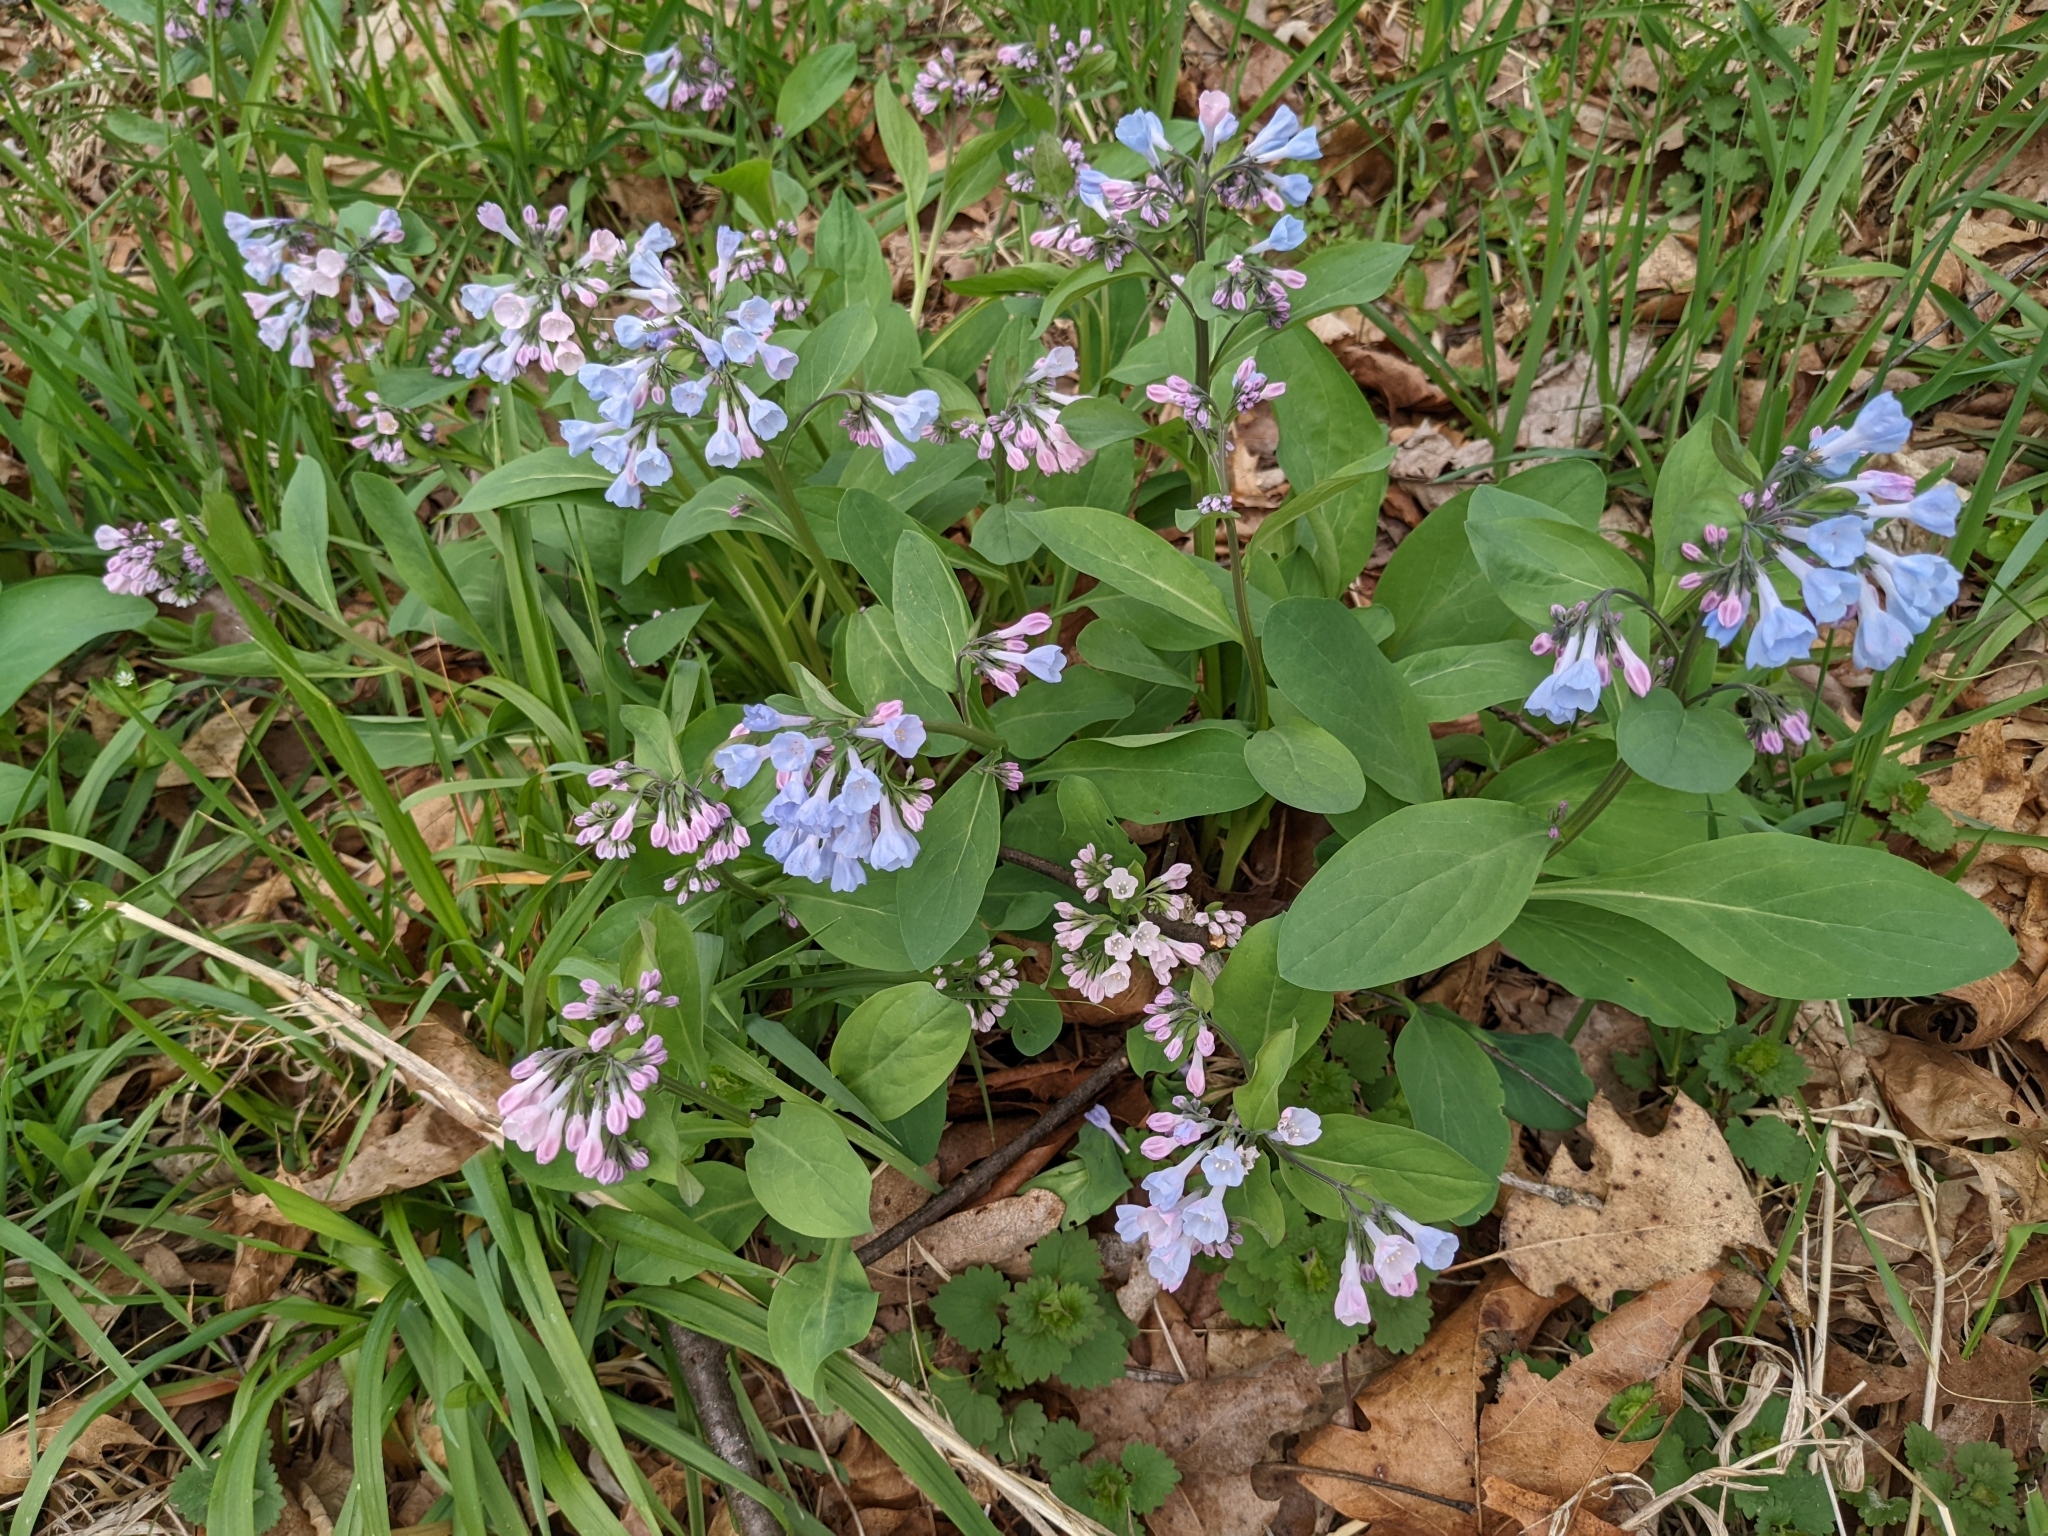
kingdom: Plantae
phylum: Tracheophyta
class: Magnoliopsida
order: Boraginales
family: Boraginaceae
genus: Mertensia
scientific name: Mertensia virginica
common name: Virginia bluebells
